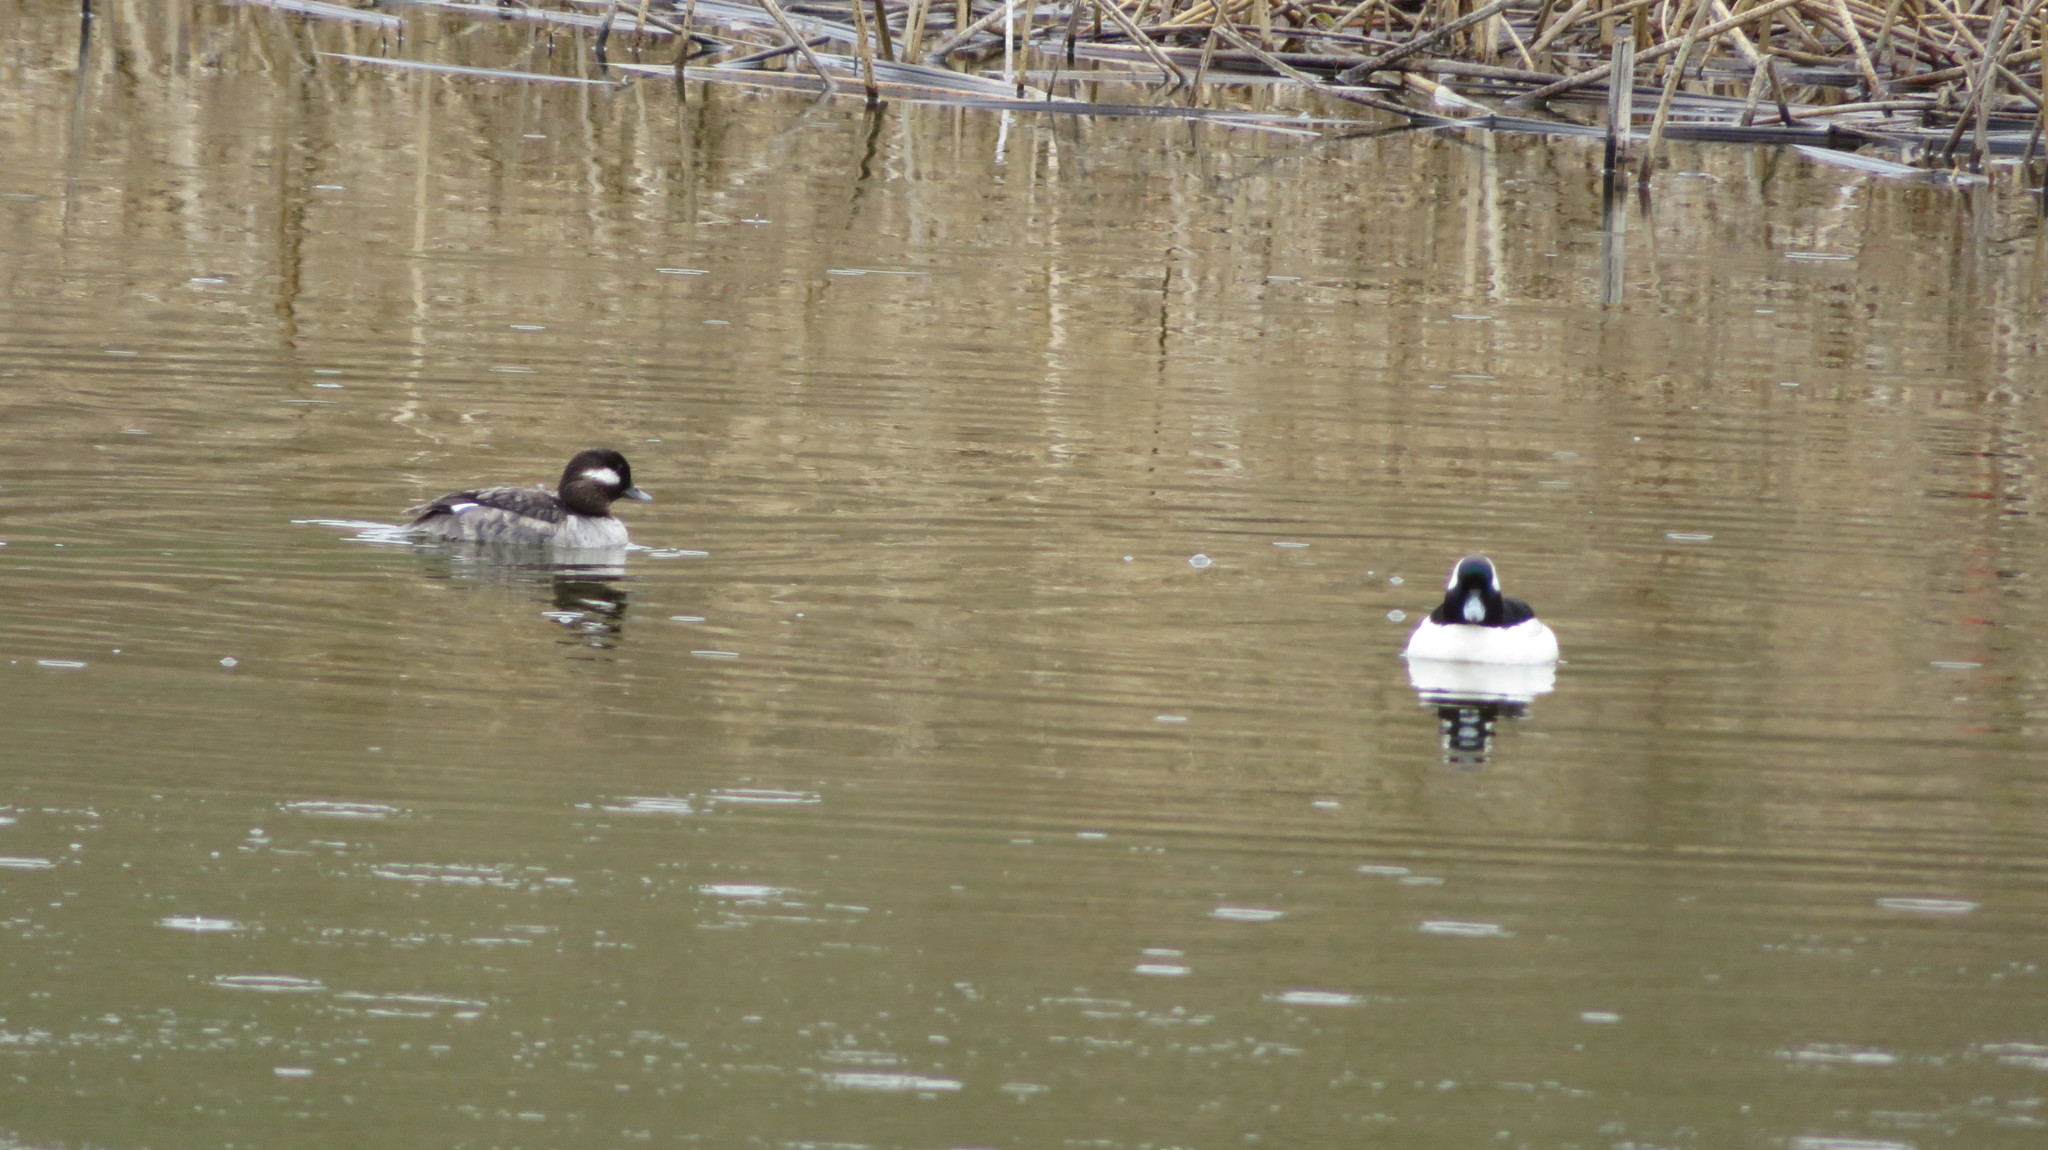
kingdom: Animalia
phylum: Chordata
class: Aves
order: Anseriformes
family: Anatidae
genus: Bucephala
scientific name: Bucephala albeola
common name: Bufflehead
